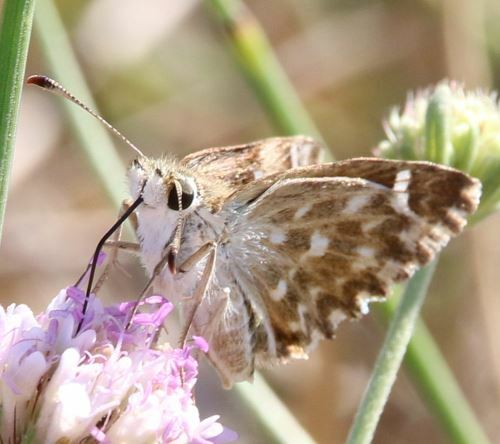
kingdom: Animalia
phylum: Arthropoda
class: Insecta
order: Lepidoptera
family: Hesperiidae
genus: Carcharodus
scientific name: Carcharodus alceae
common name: Mallow skipper
